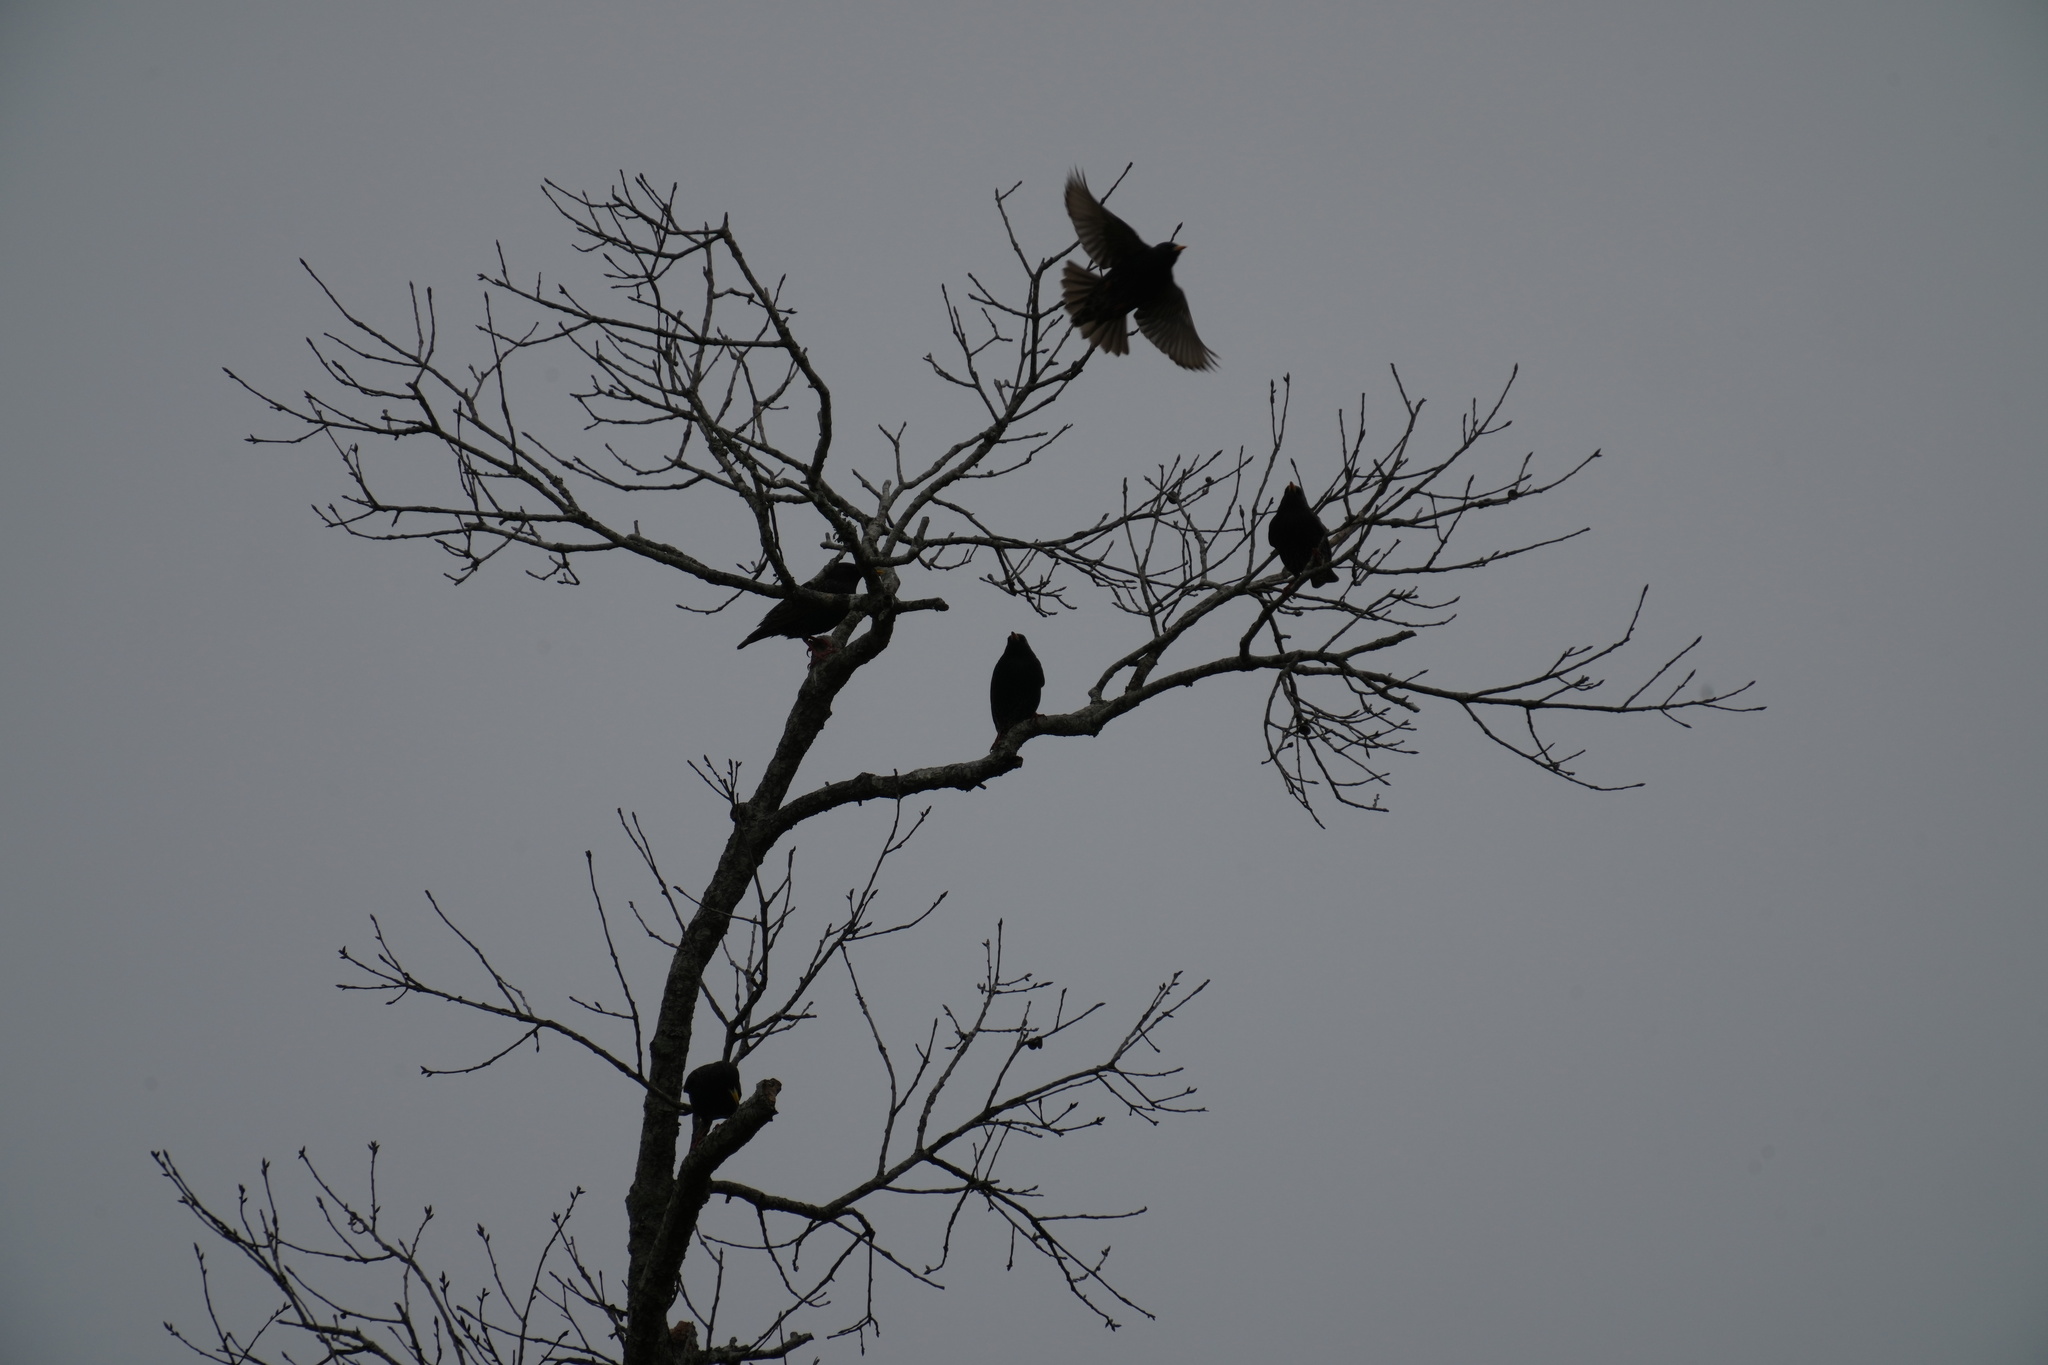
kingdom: Animalia
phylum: Chordata
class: Aves
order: Passeriformes
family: Sturnidae
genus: Sturnus
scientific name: Sturnus vulgaris
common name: Common starling
